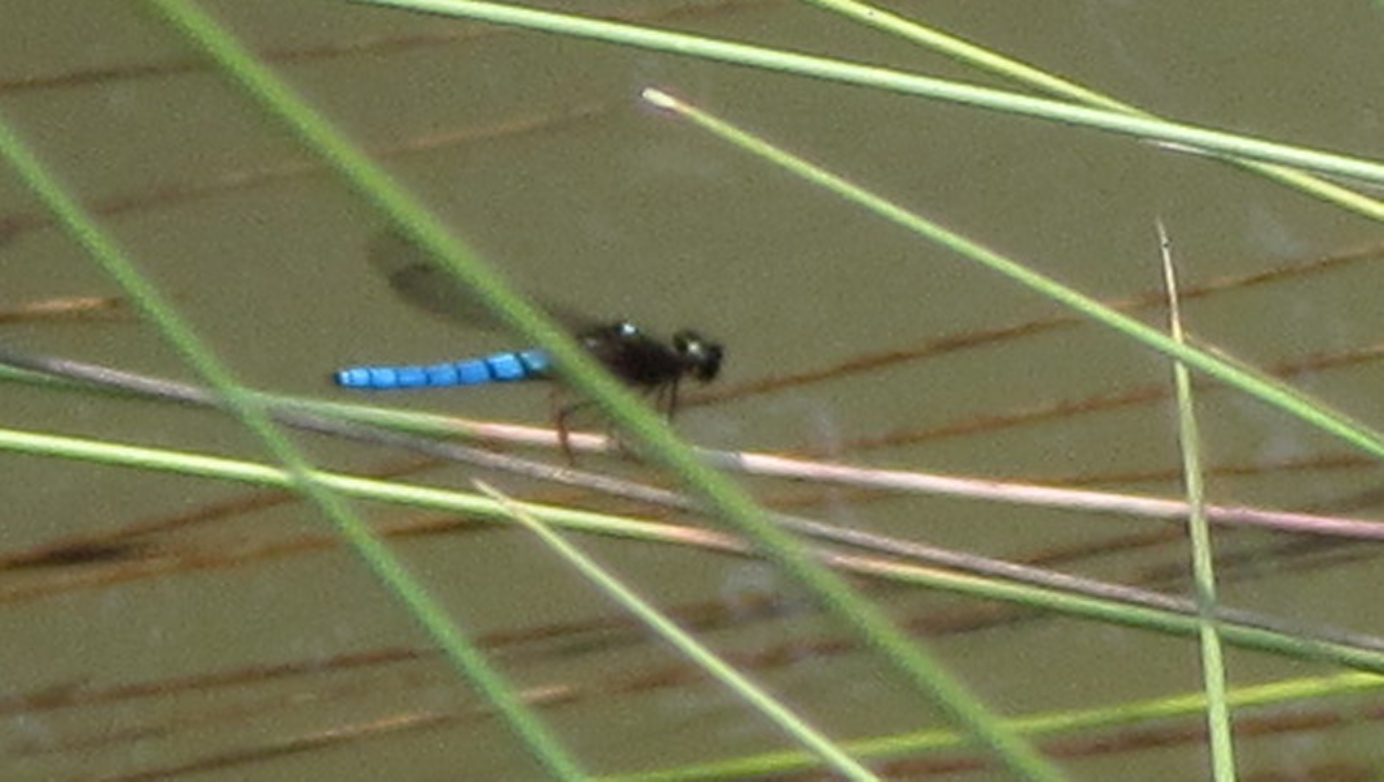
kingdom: Animalia
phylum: Arthropoda
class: Insecta
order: Odonata
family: Chlorocyphidae
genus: Platycypha
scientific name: Platycypha caligata
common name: Dancing jewel
